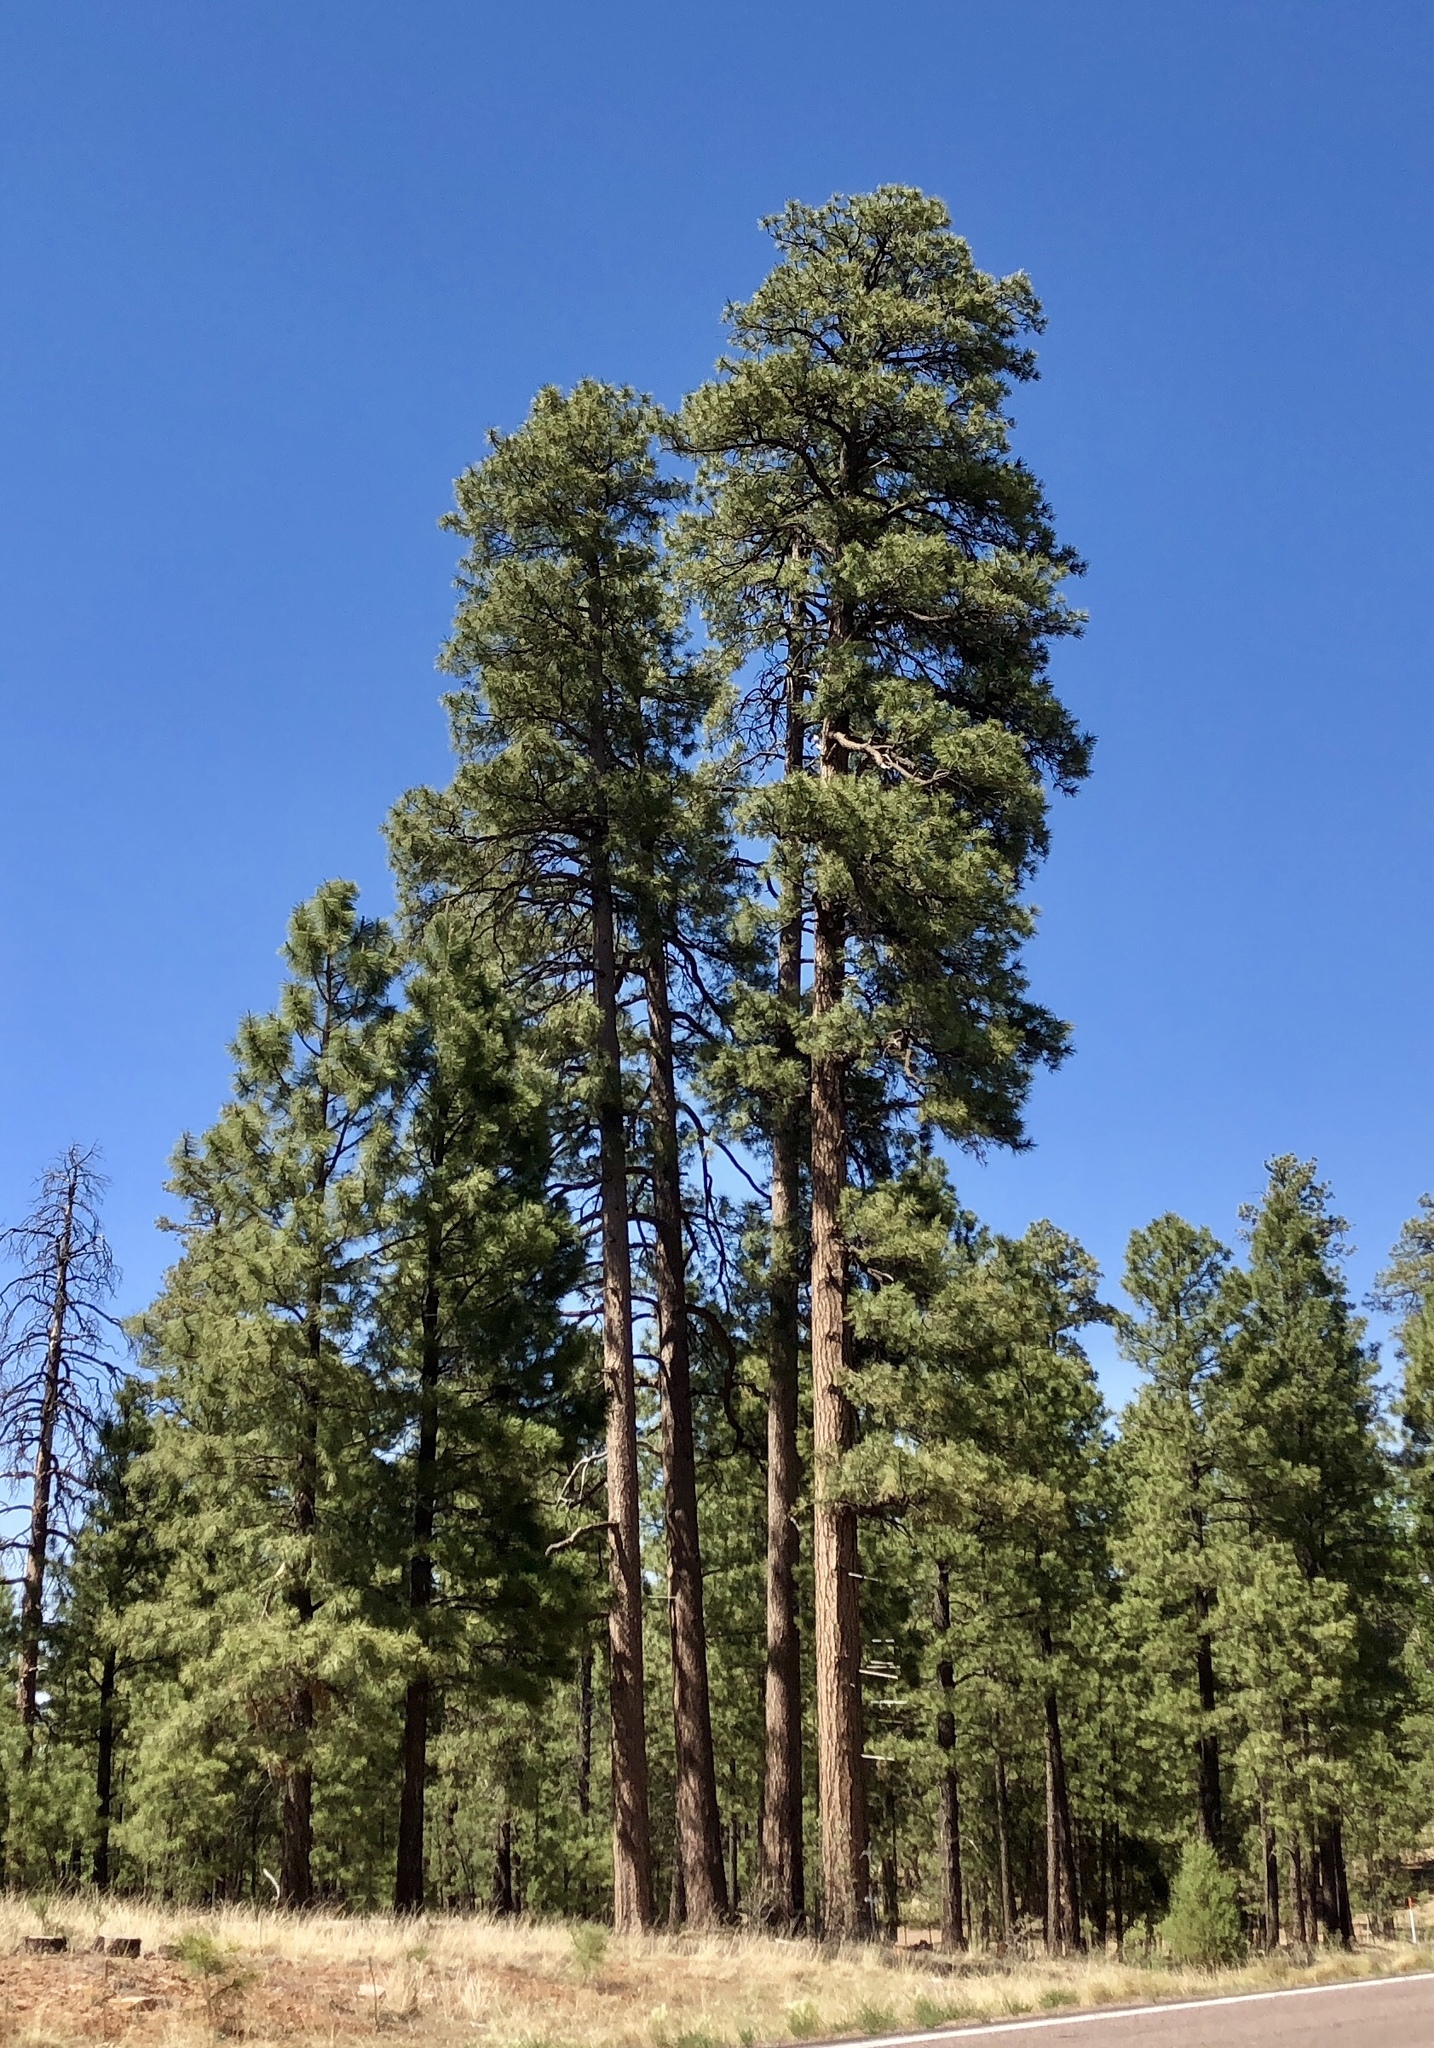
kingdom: Plantae
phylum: Tracheophyta
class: Pinopsida
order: Pinales
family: Pinaceae
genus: Pinus
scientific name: Pinus ponderosa
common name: Western yellow-pine
